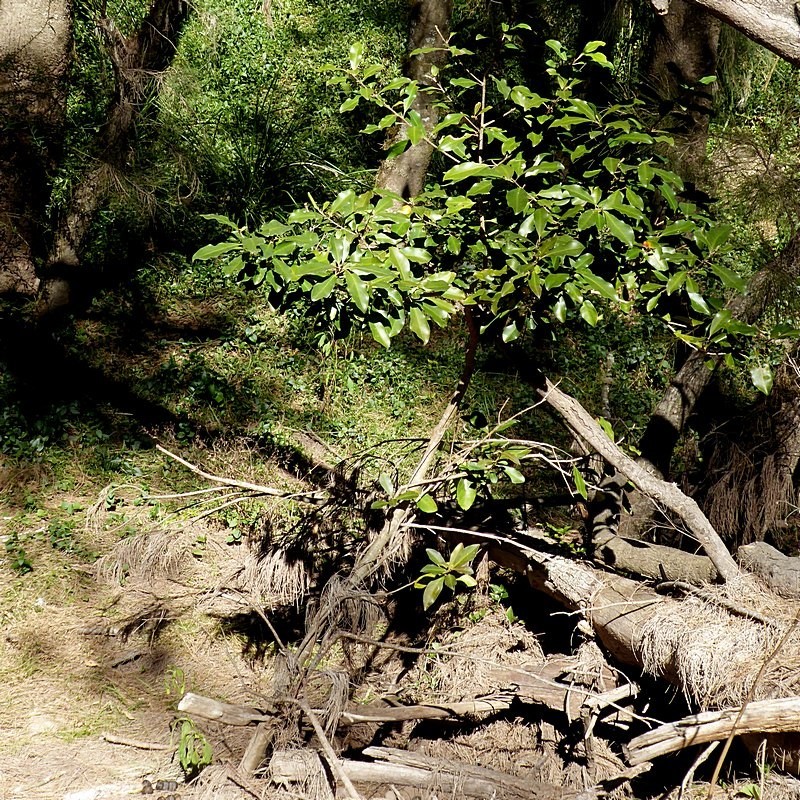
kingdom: Plantae
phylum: Tracheophyta
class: Magnoliopsida
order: Ericales
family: Primulaceae
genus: Myrsine
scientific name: Myrsine howittiana
